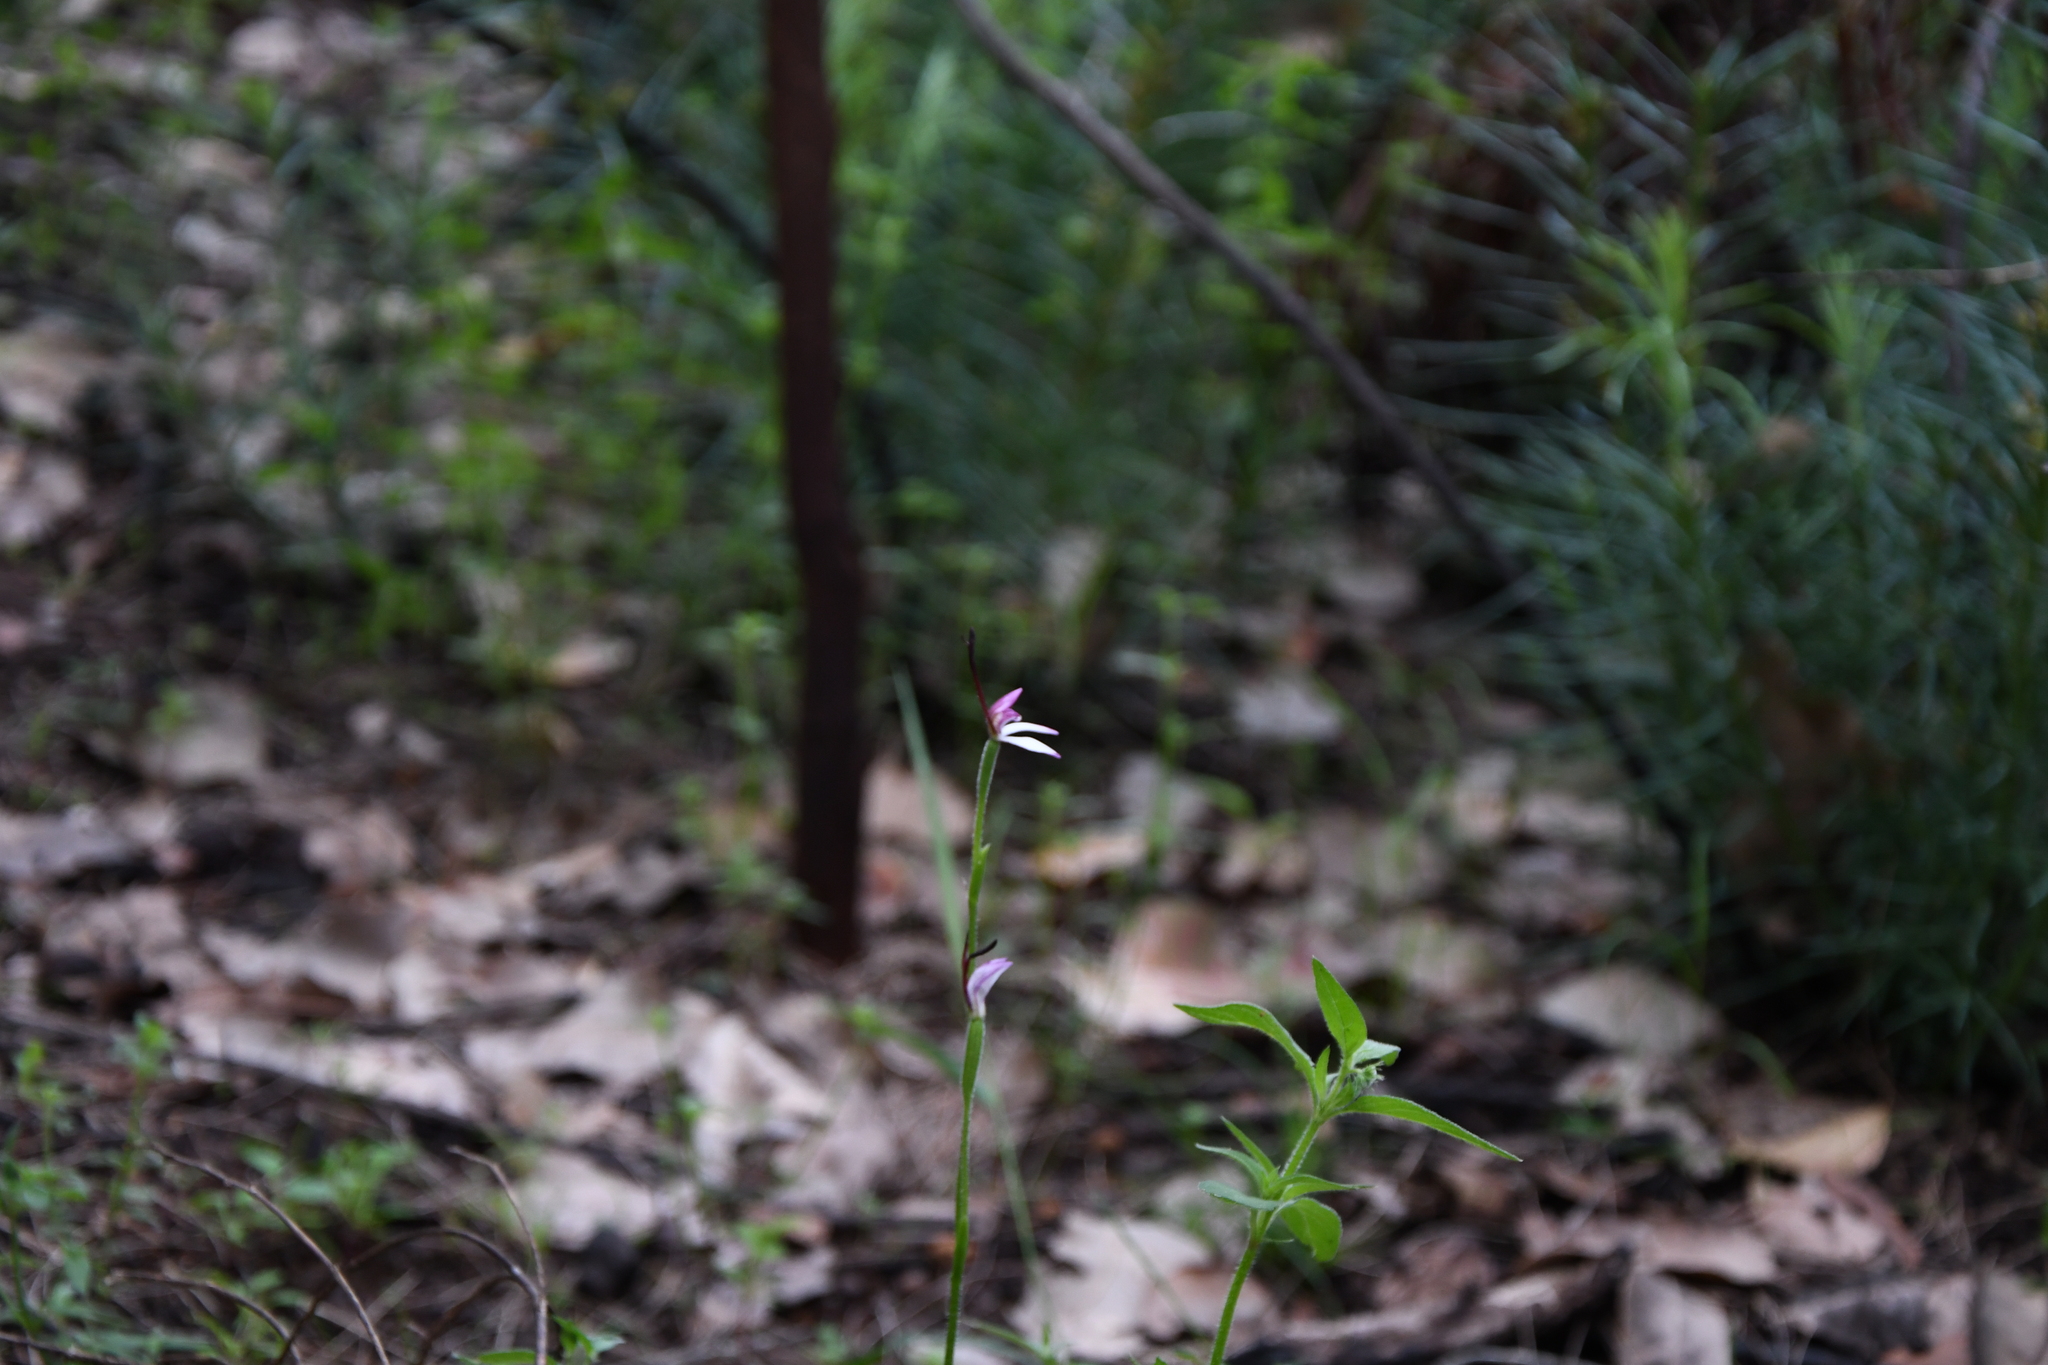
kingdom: Plantae
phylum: Tracheophyta
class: Liliopsida
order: Asparagales
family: Orchidaceae
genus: Leptoceras
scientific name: Leptoceras menziesii
